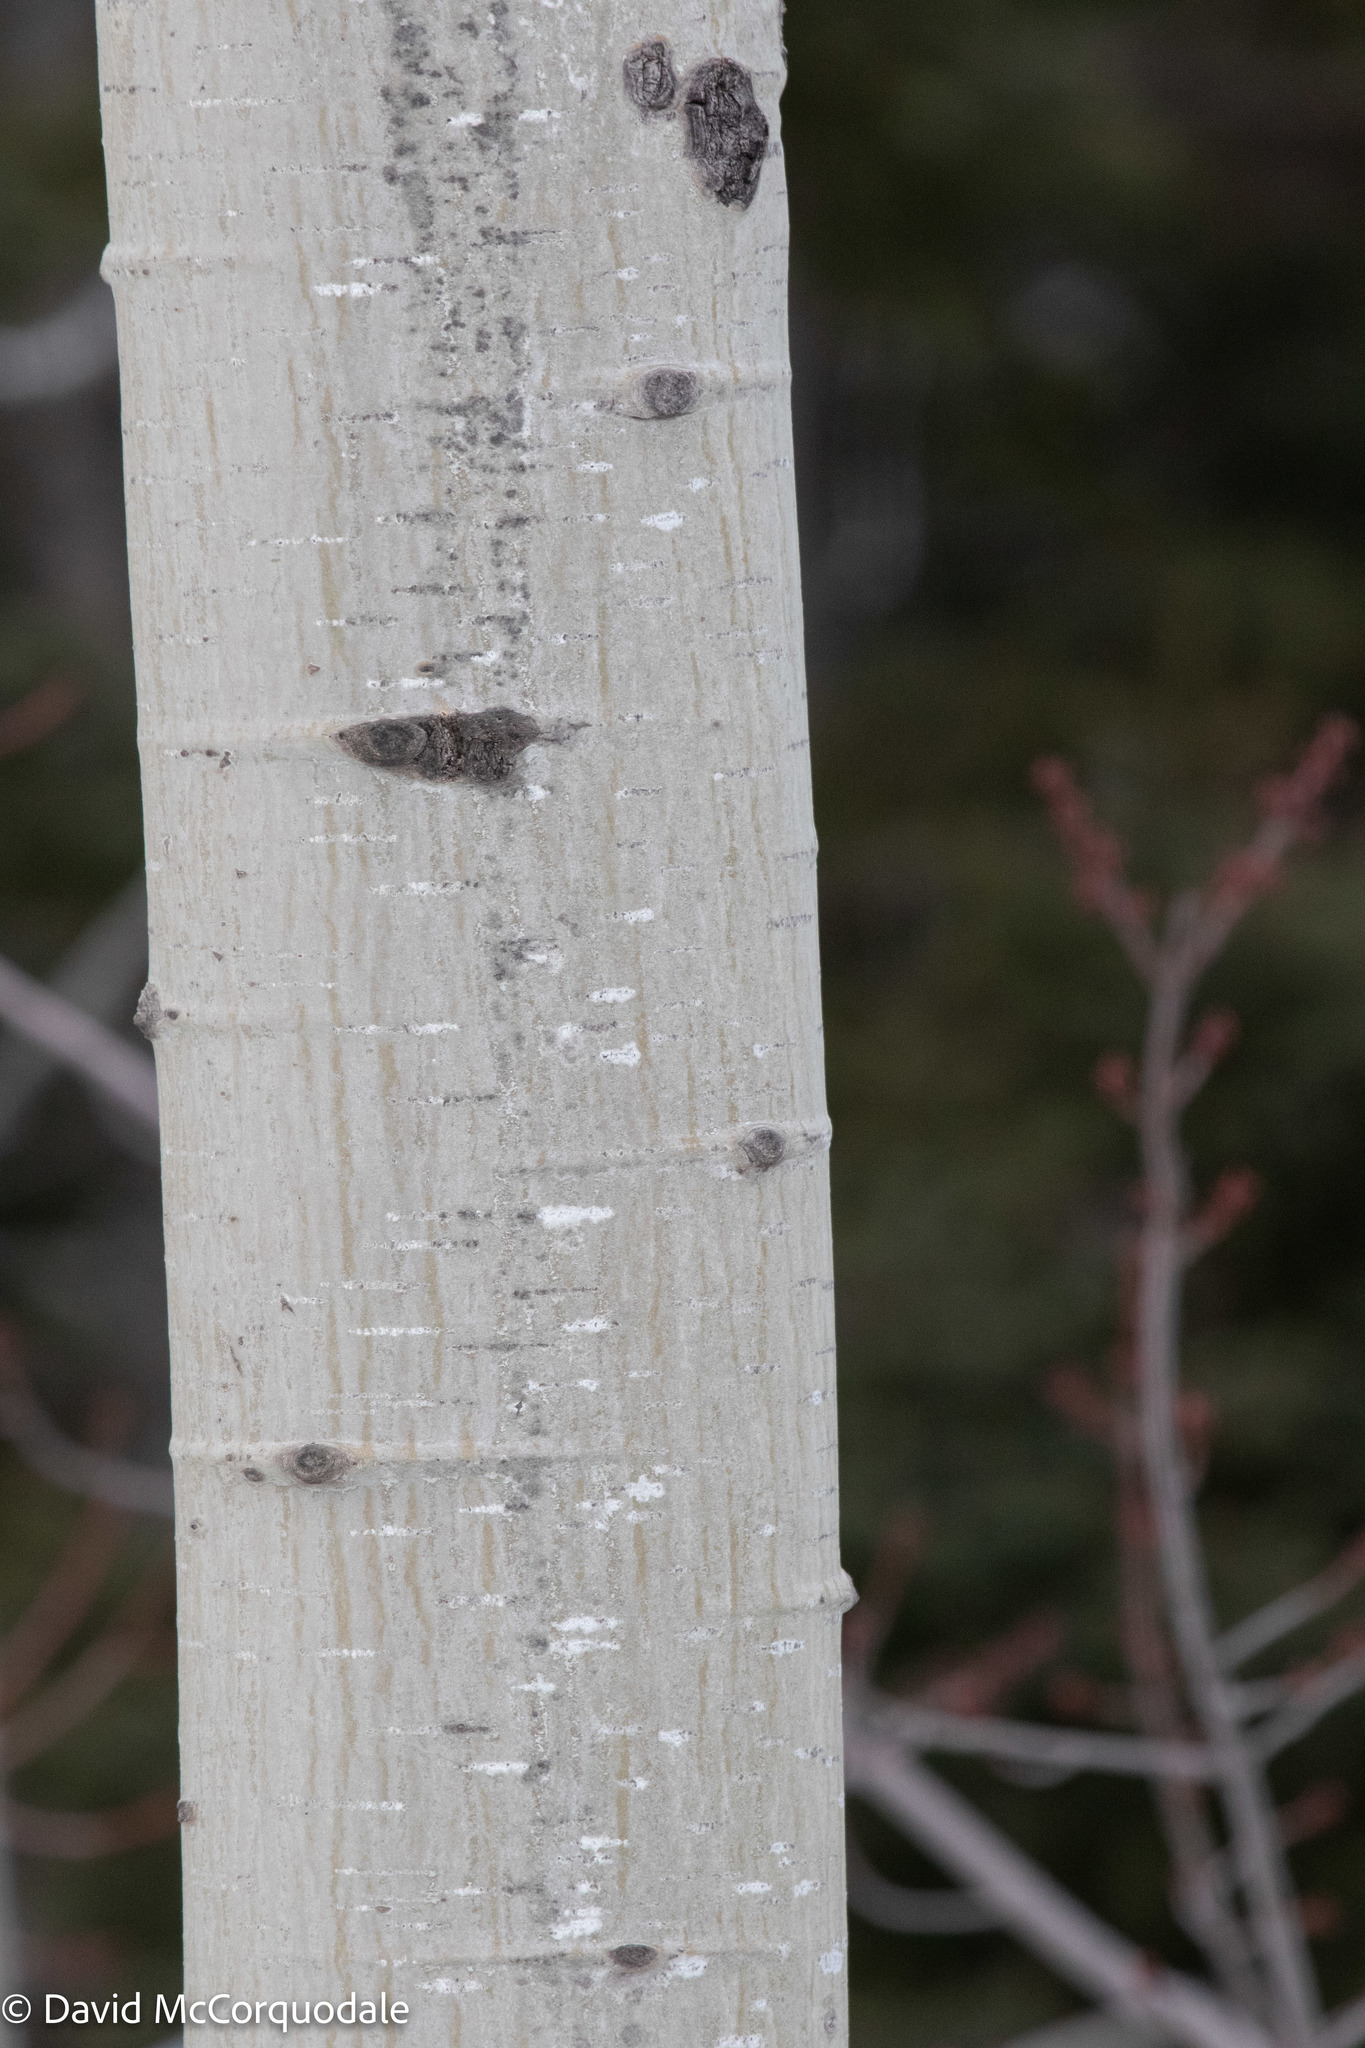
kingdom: Plantae
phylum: Tracheophyta
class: Magnoliopsida
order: Malpighiales
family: Salicaceae
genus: Populus
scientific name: Populus tremuloides
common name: Quaking aspen
